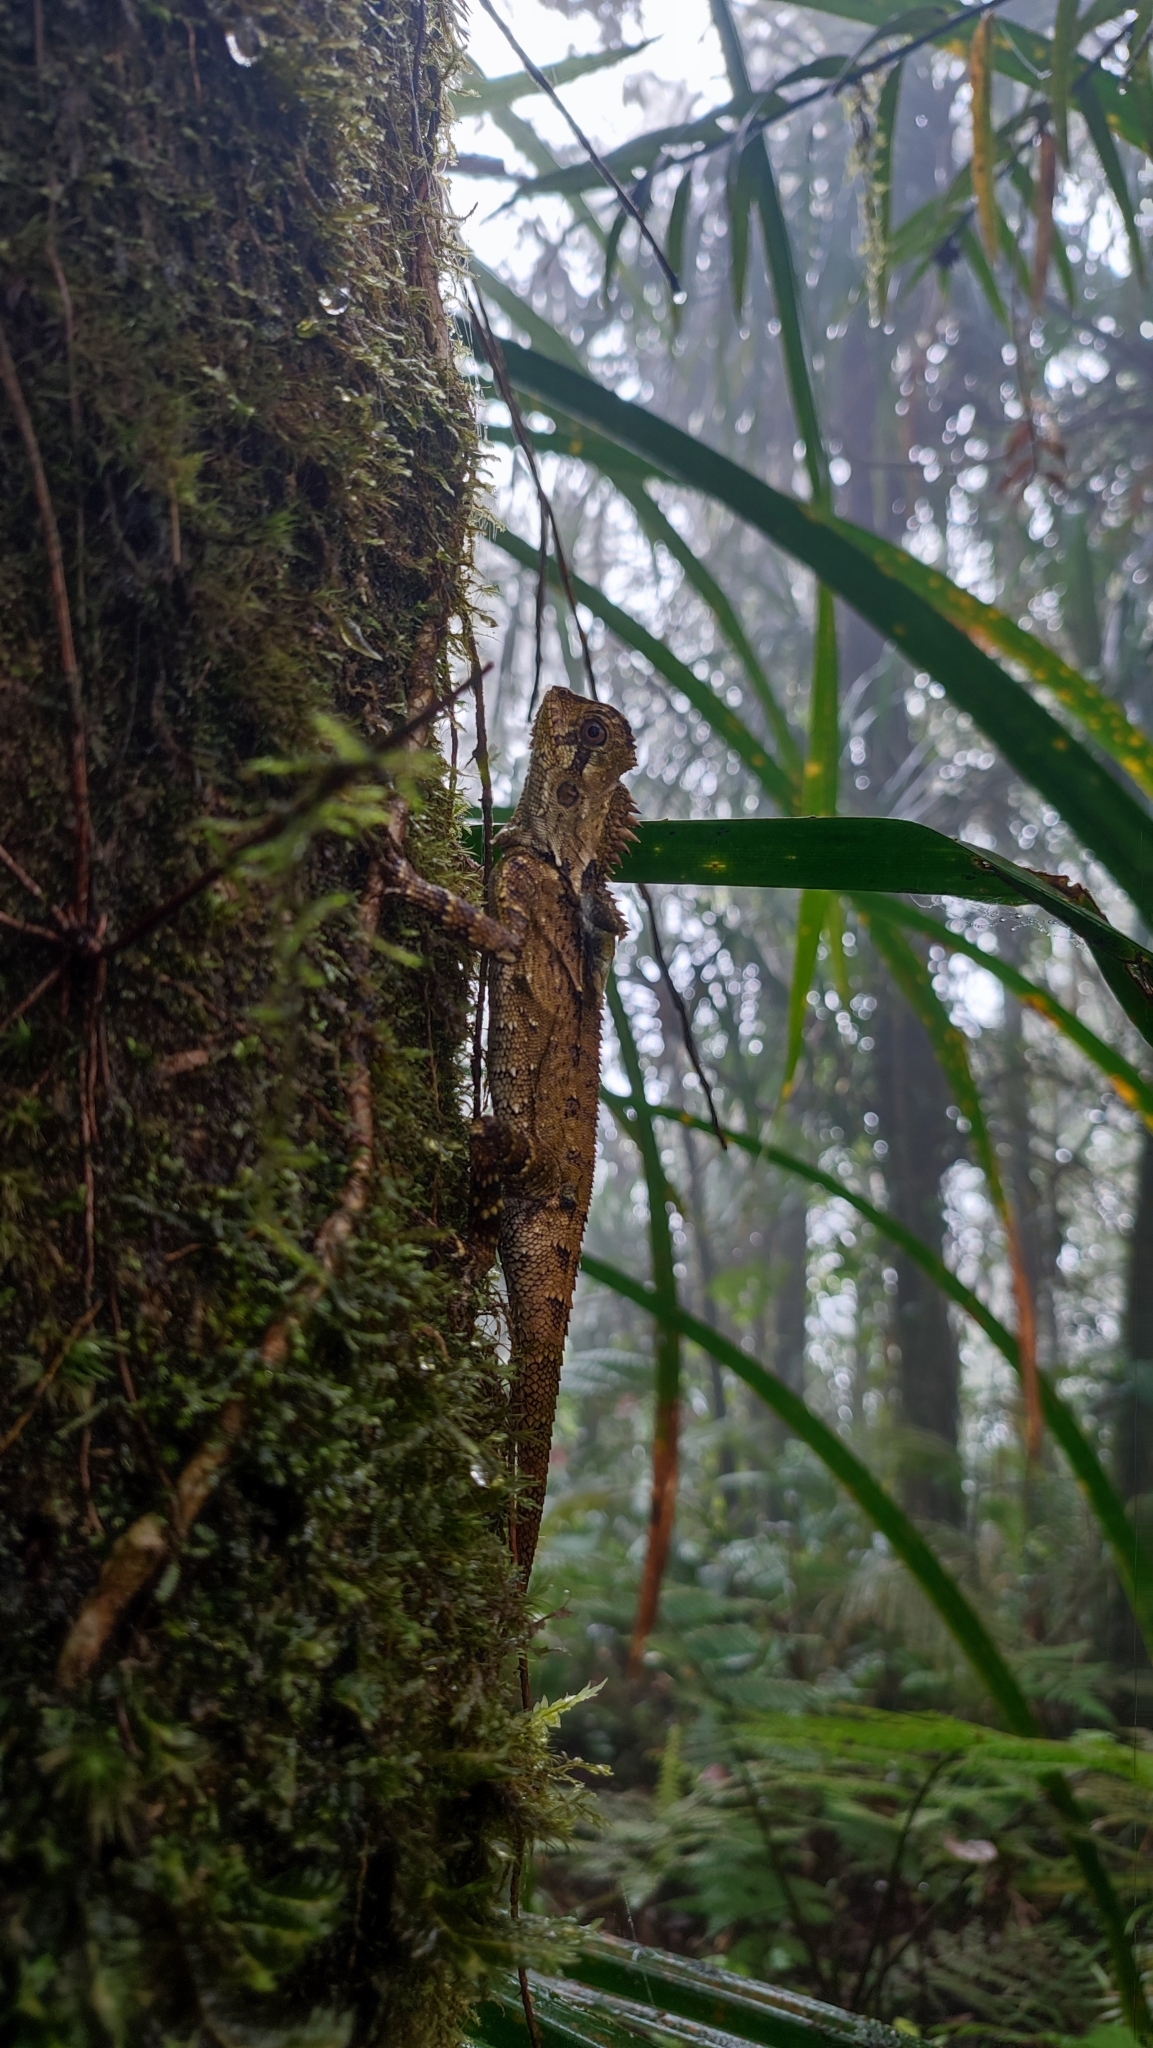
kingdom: Animalia
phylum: Chordata
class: Squamata
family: Agamidae
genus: Gonocephalus
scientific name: Gonocephalus kuhlii
